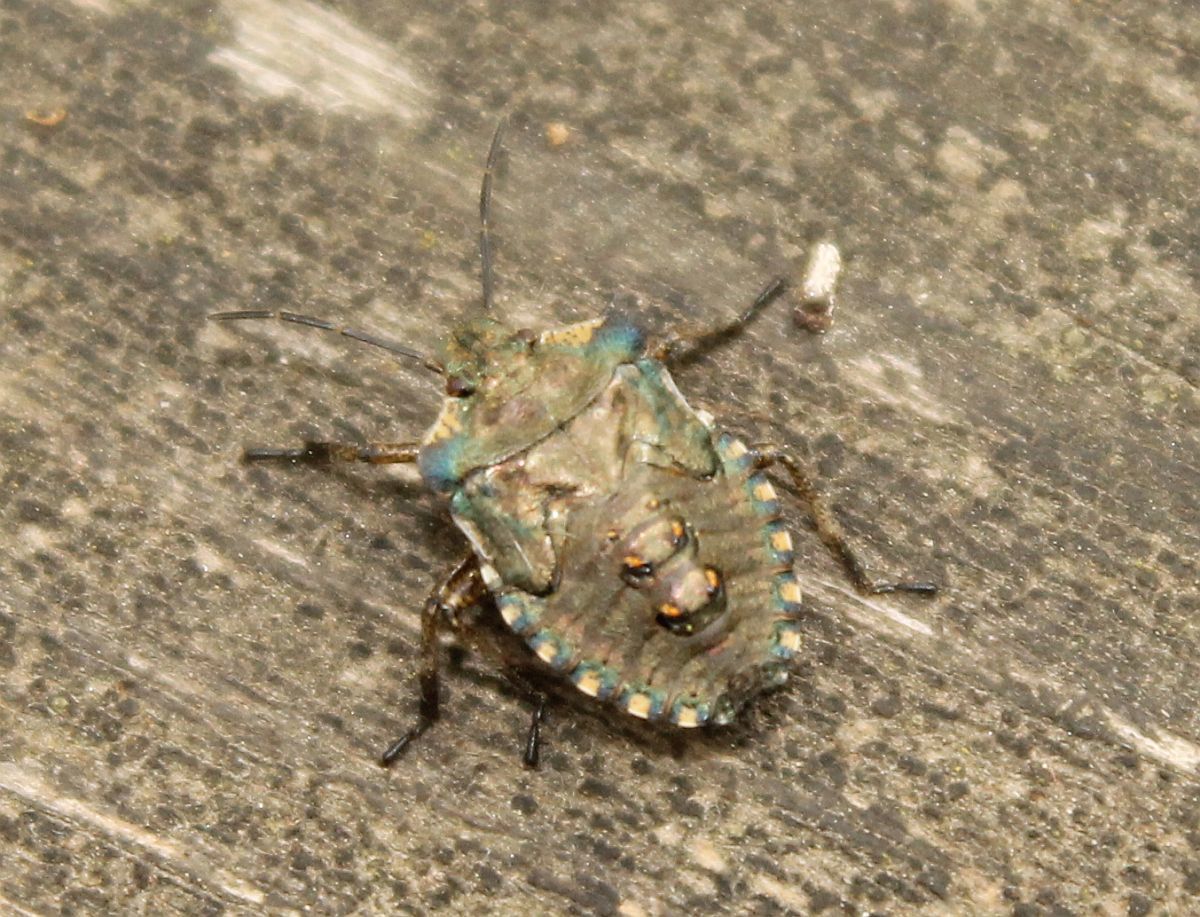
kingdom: Animalia
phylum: Arthropoda
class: Insecta
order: Hemiptera
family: Pentatomidae
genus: Pentatoma
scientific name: Pentatoma rufipes
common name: Forest bug
